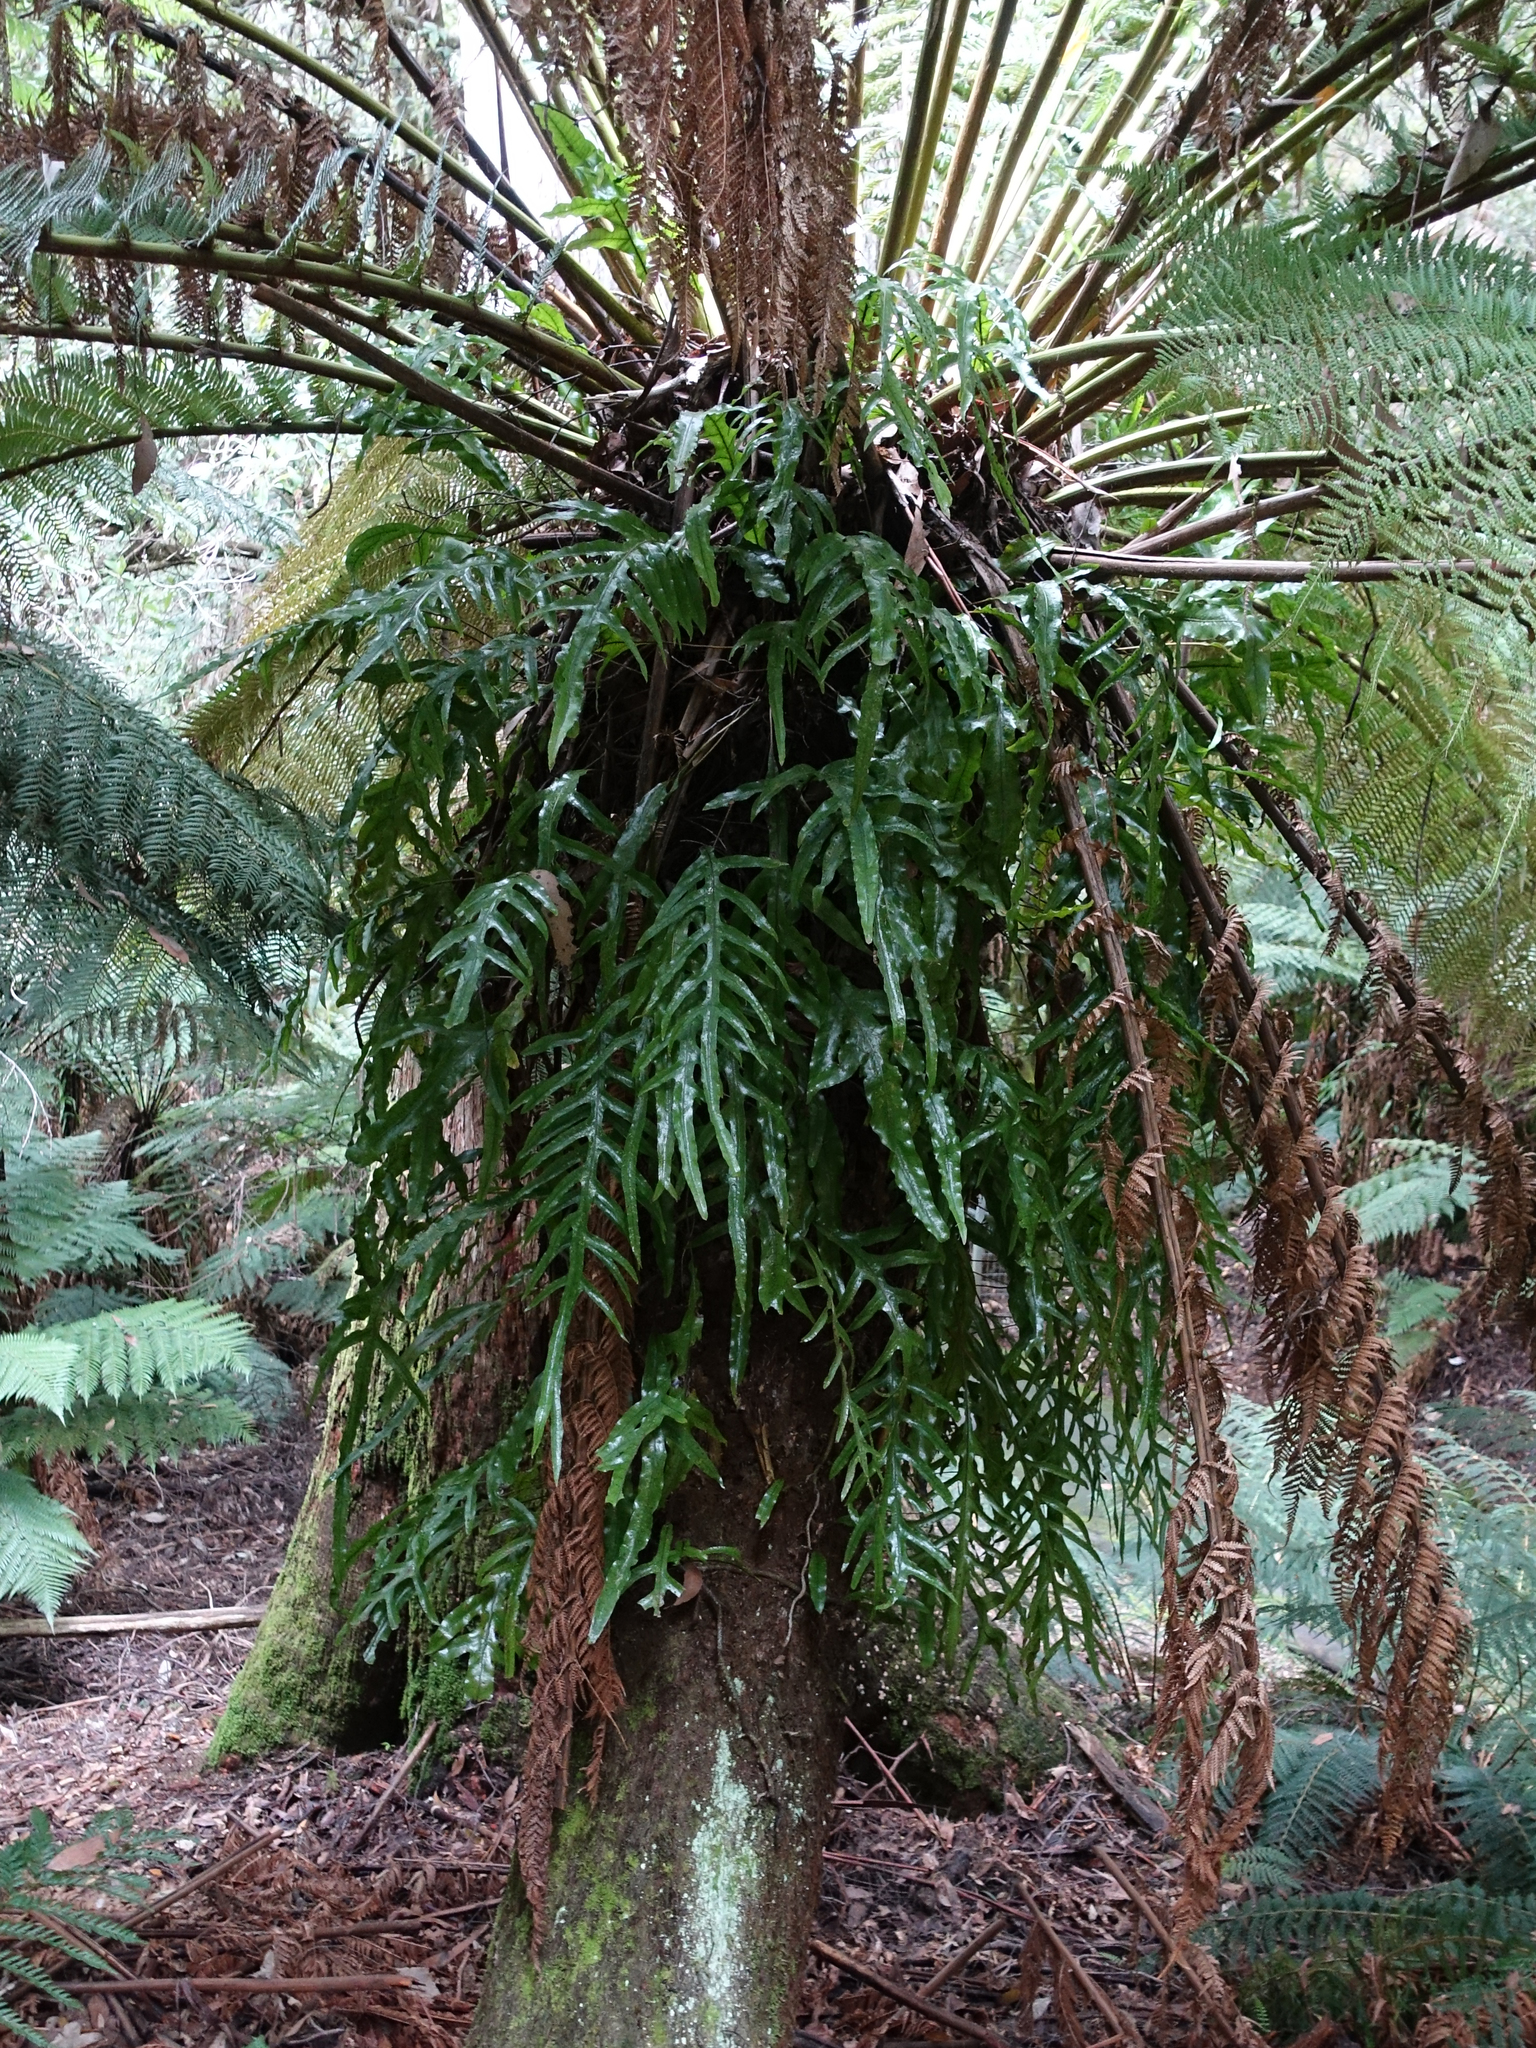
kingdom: Plantae
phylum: Tracheophyta
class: Polypodiopsida
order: Polypodiales
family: Polypodiaceae
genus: Lecanopteris
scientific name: Lecanopteris pustulata
